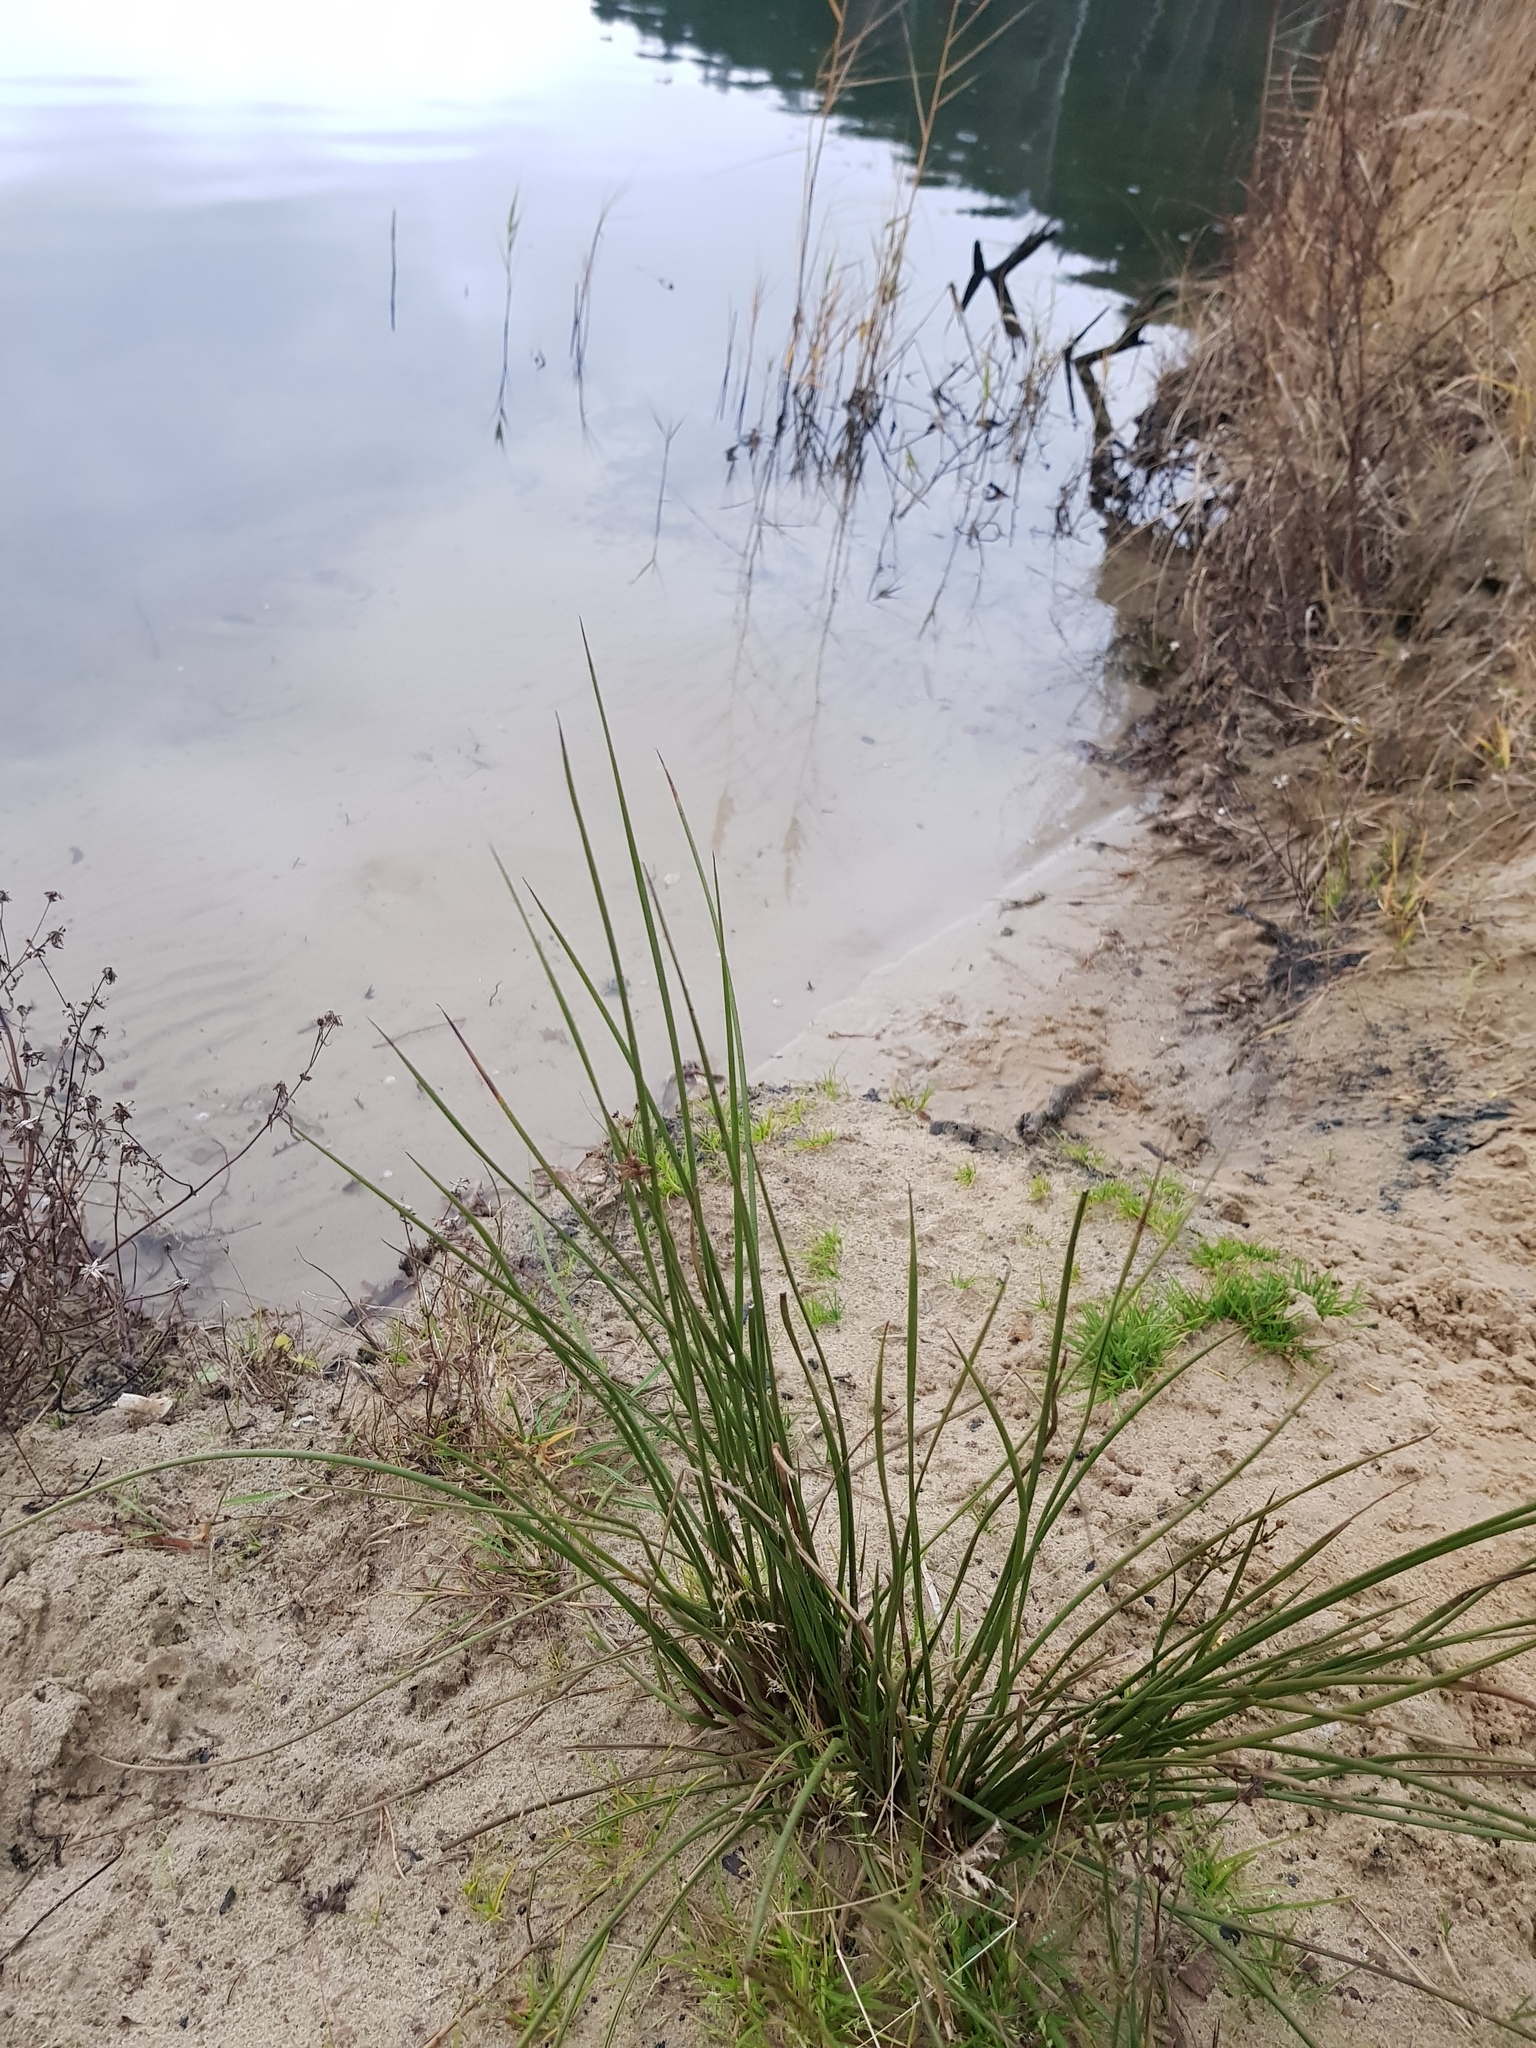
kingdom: Plantae
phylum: Tracheophyta
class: Liliopsida
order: Poales
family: Juncaceae
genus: Juncus
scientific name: Juncus effusus
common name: Soft rush
